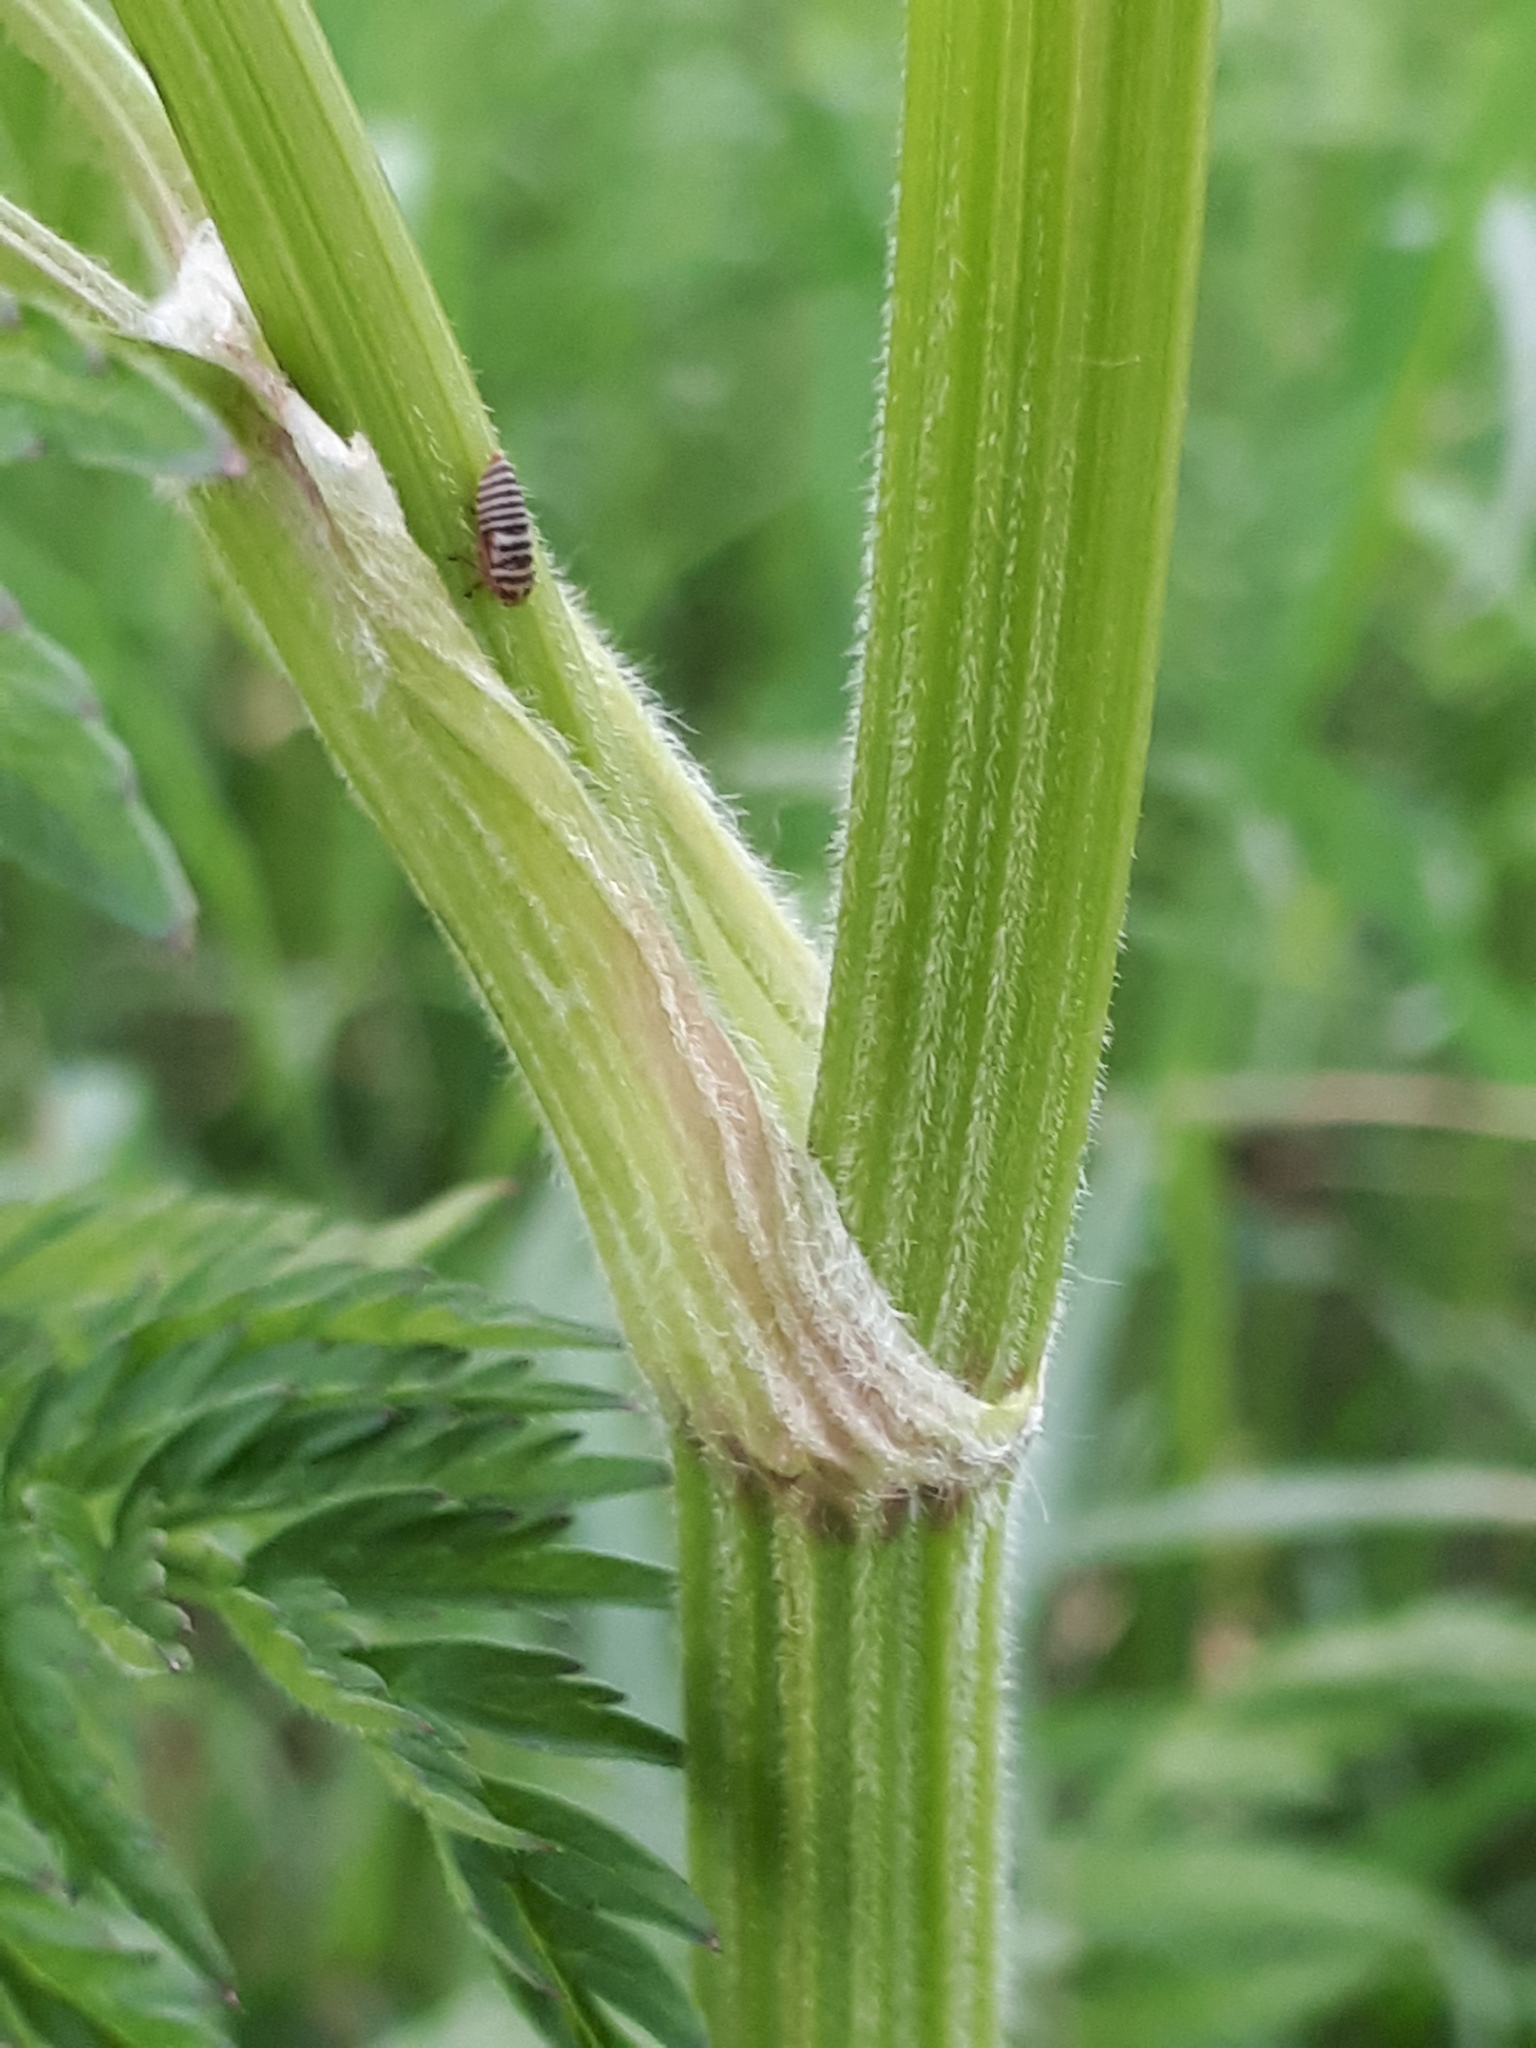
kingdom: Plantae
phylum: Tracheophyta
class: Magnoliopsida
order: Apiales
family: Apiaceae
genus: Anthriscus
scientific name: Anthriscus sylvestris
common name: Cow parsley
